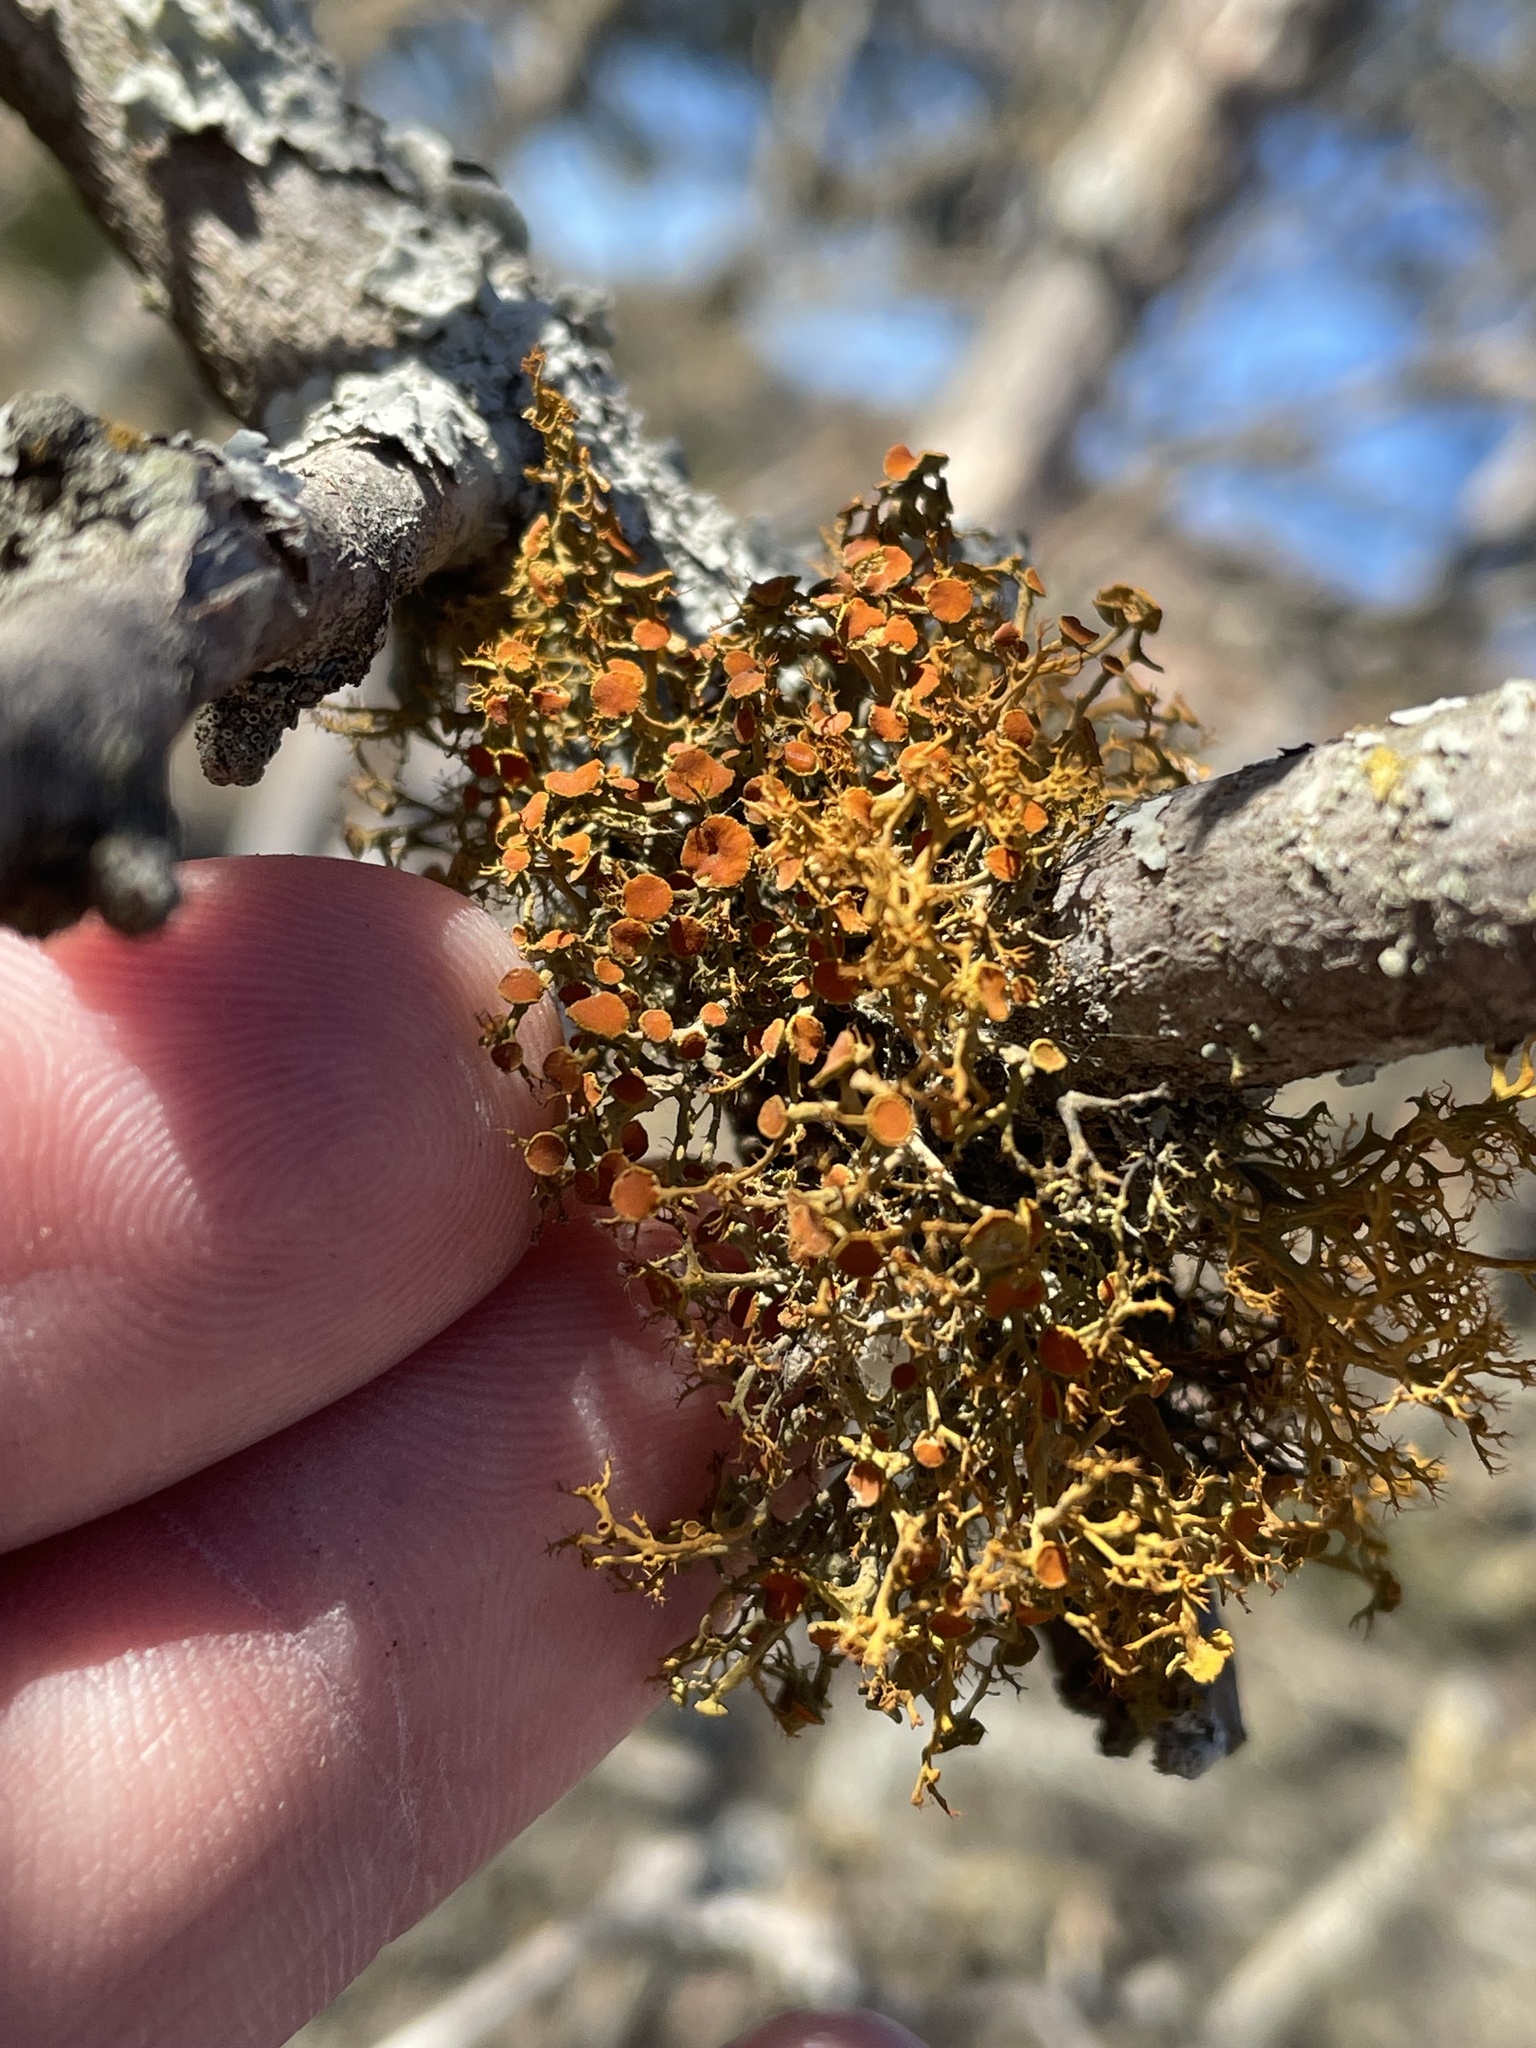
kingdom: Fungi
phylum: Ascomycota
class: Lecanoromycetes
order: Teloschistales
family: Teloschistaceae
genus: Teloschistes
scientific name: Teloschistes exilis
